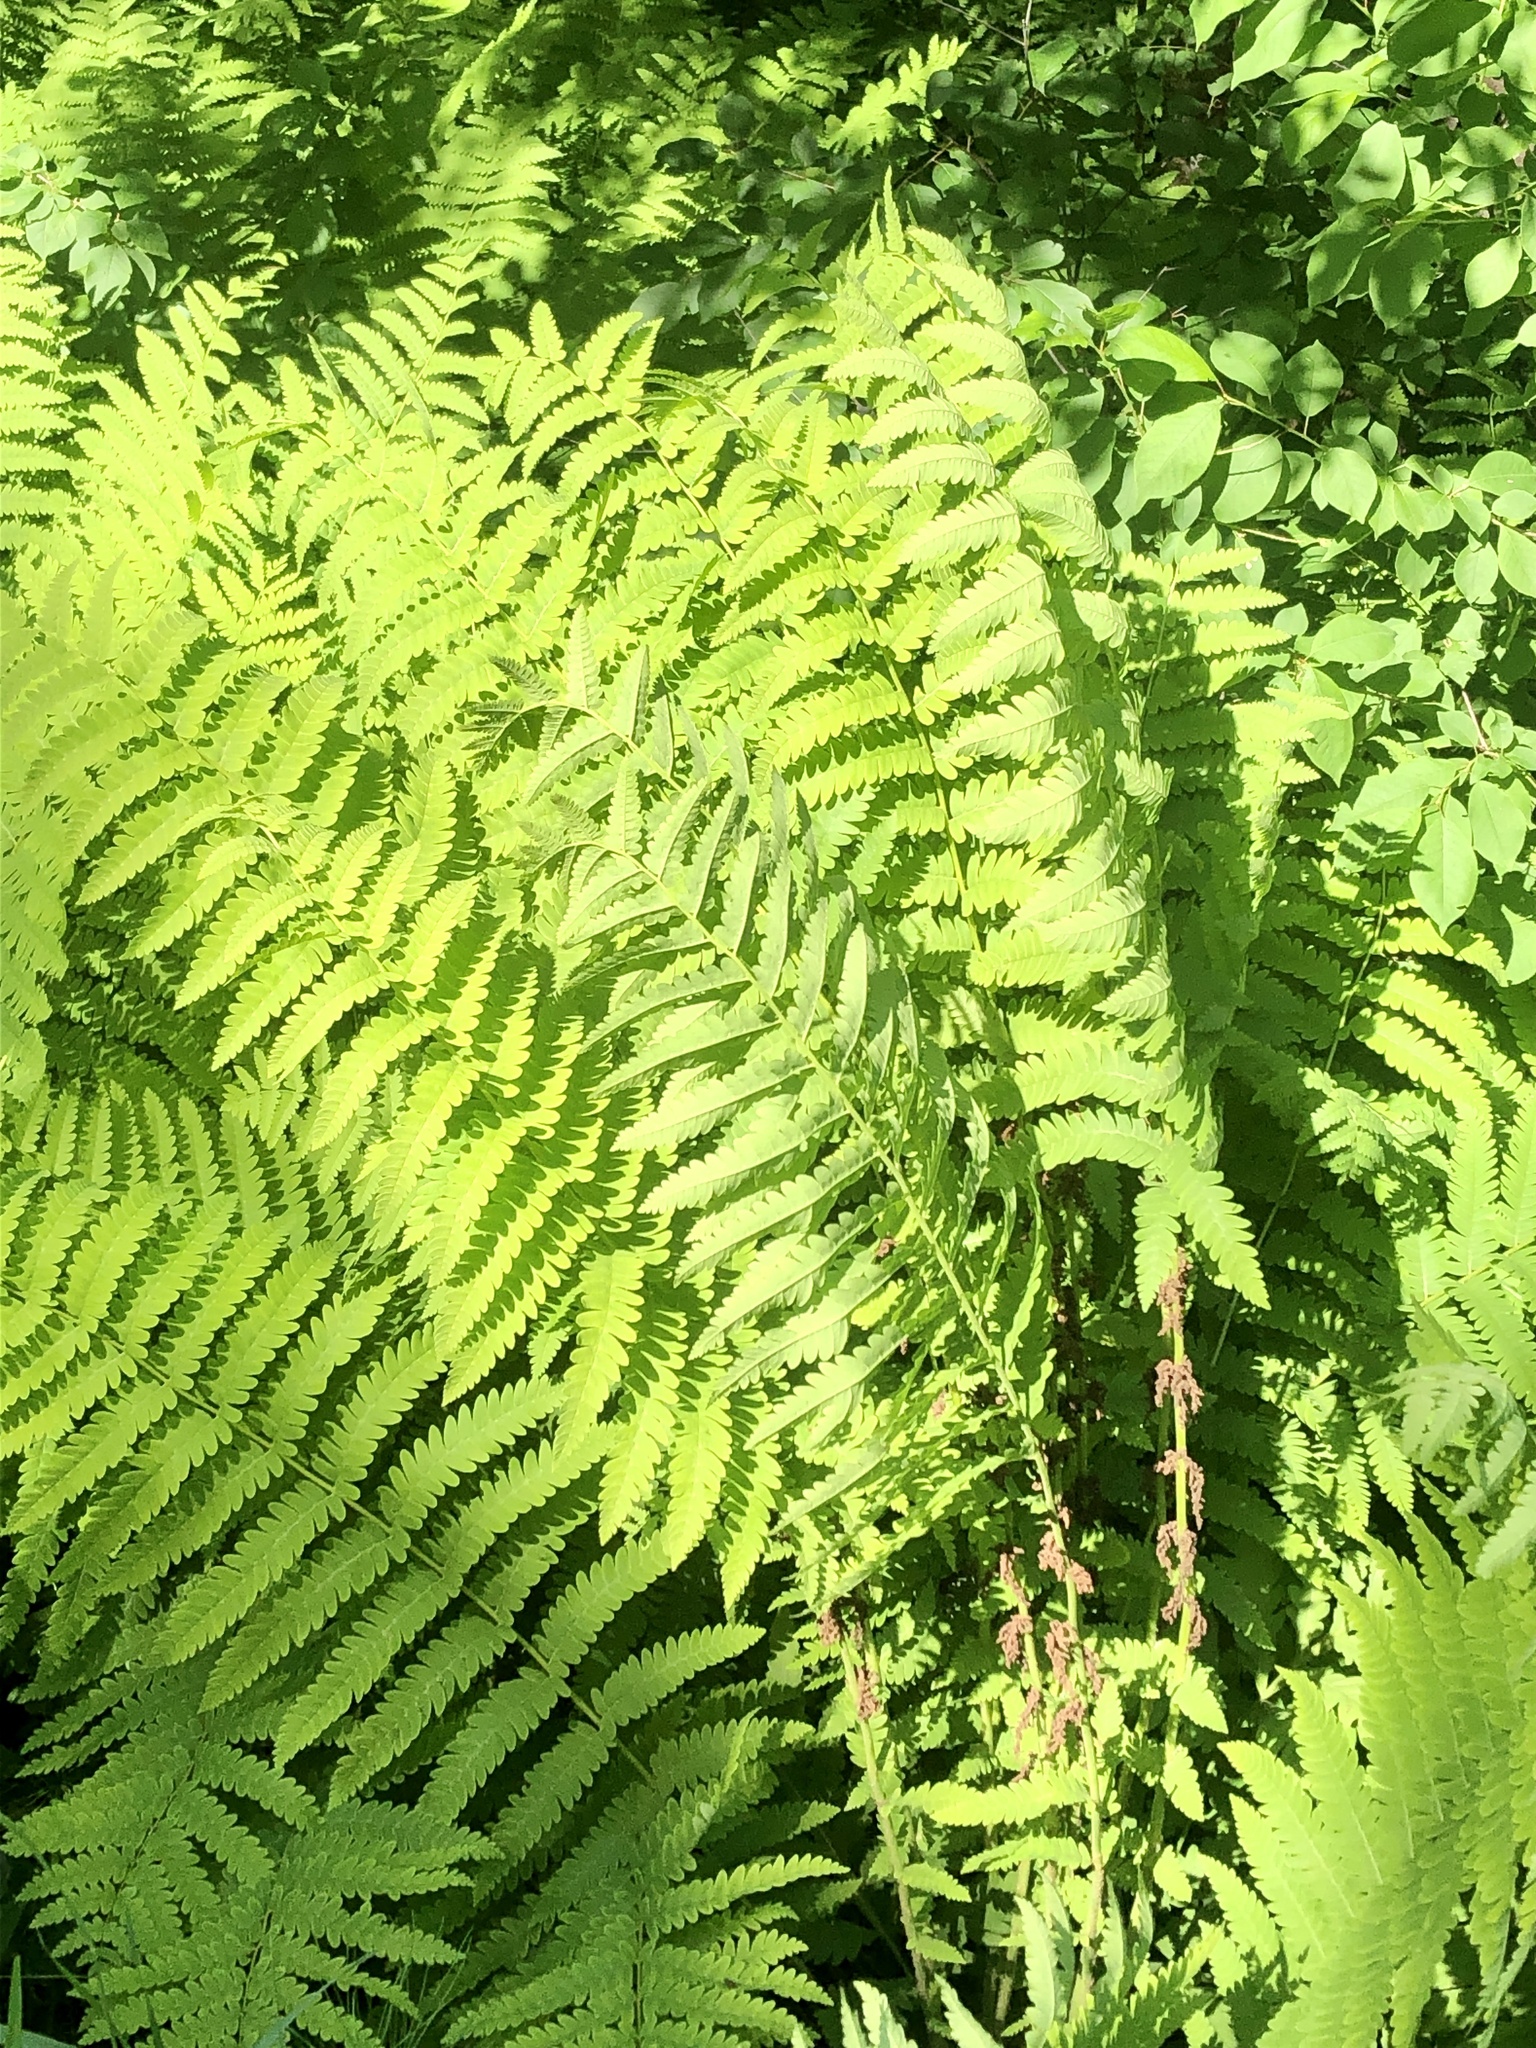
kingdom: Plantae
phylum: Tracheophyta
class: Polypodiopsida
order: Osmundales
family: Osmundaceae
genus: Claytosmunda
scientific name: Claytosmunda claytoniana
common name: Clayton's fern
